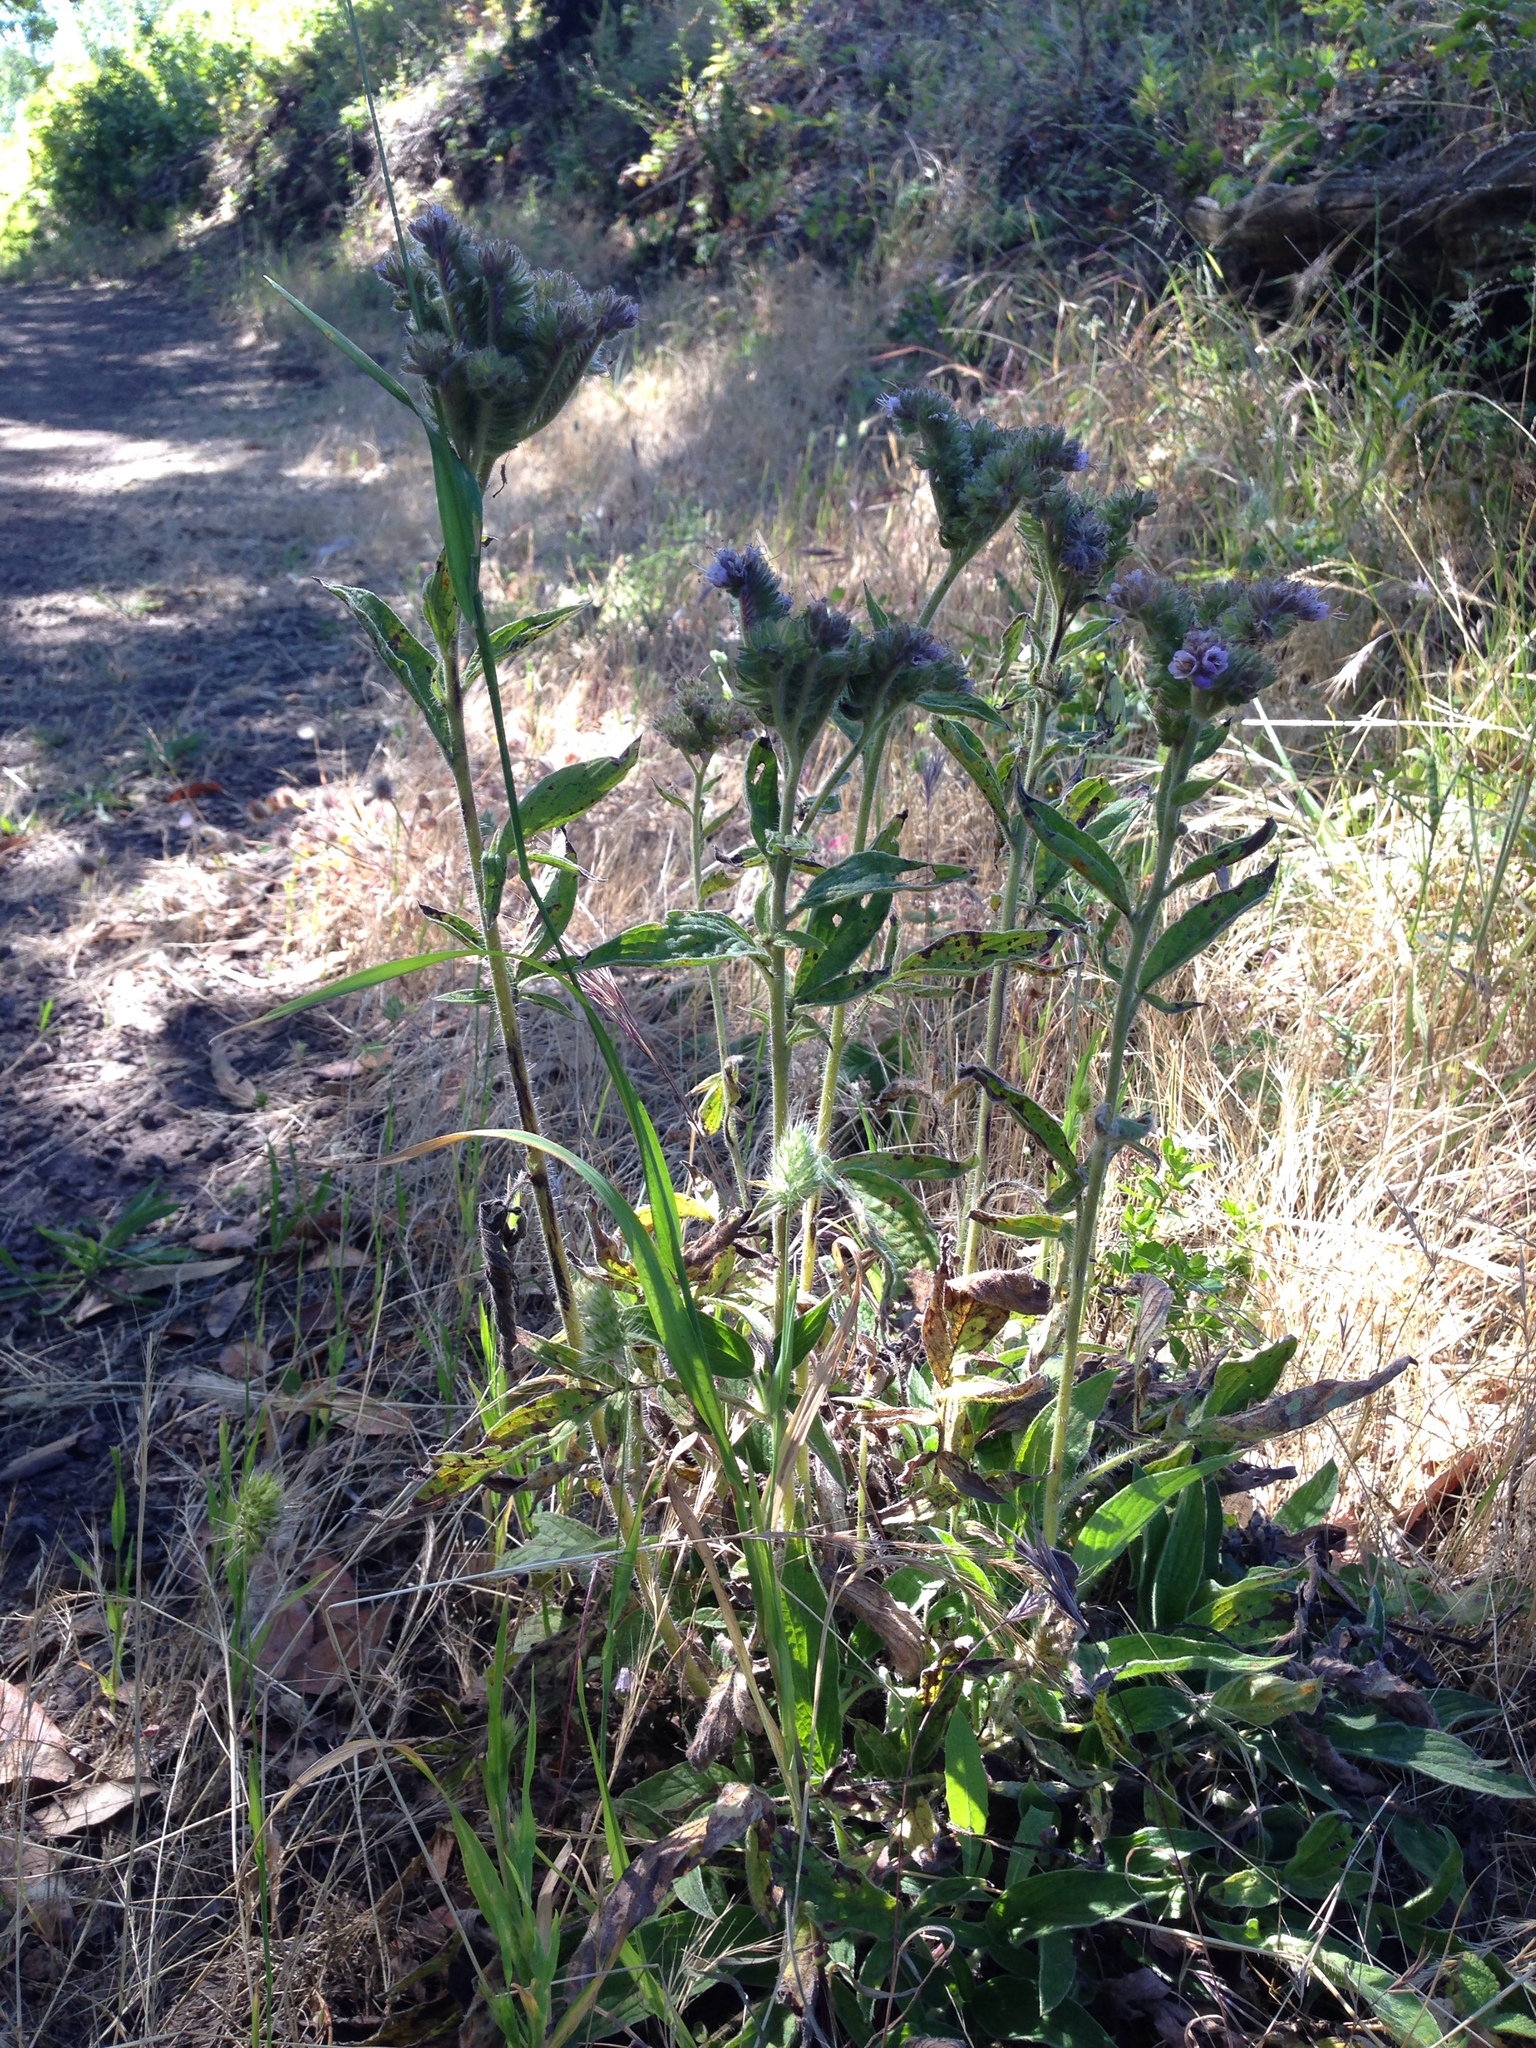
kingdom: Plantae
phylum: Tracheophyta
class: Magnoliopsida
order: Boraginales
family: Hydrophyllaceae
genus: Phacelia
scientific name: Phacelia californica
